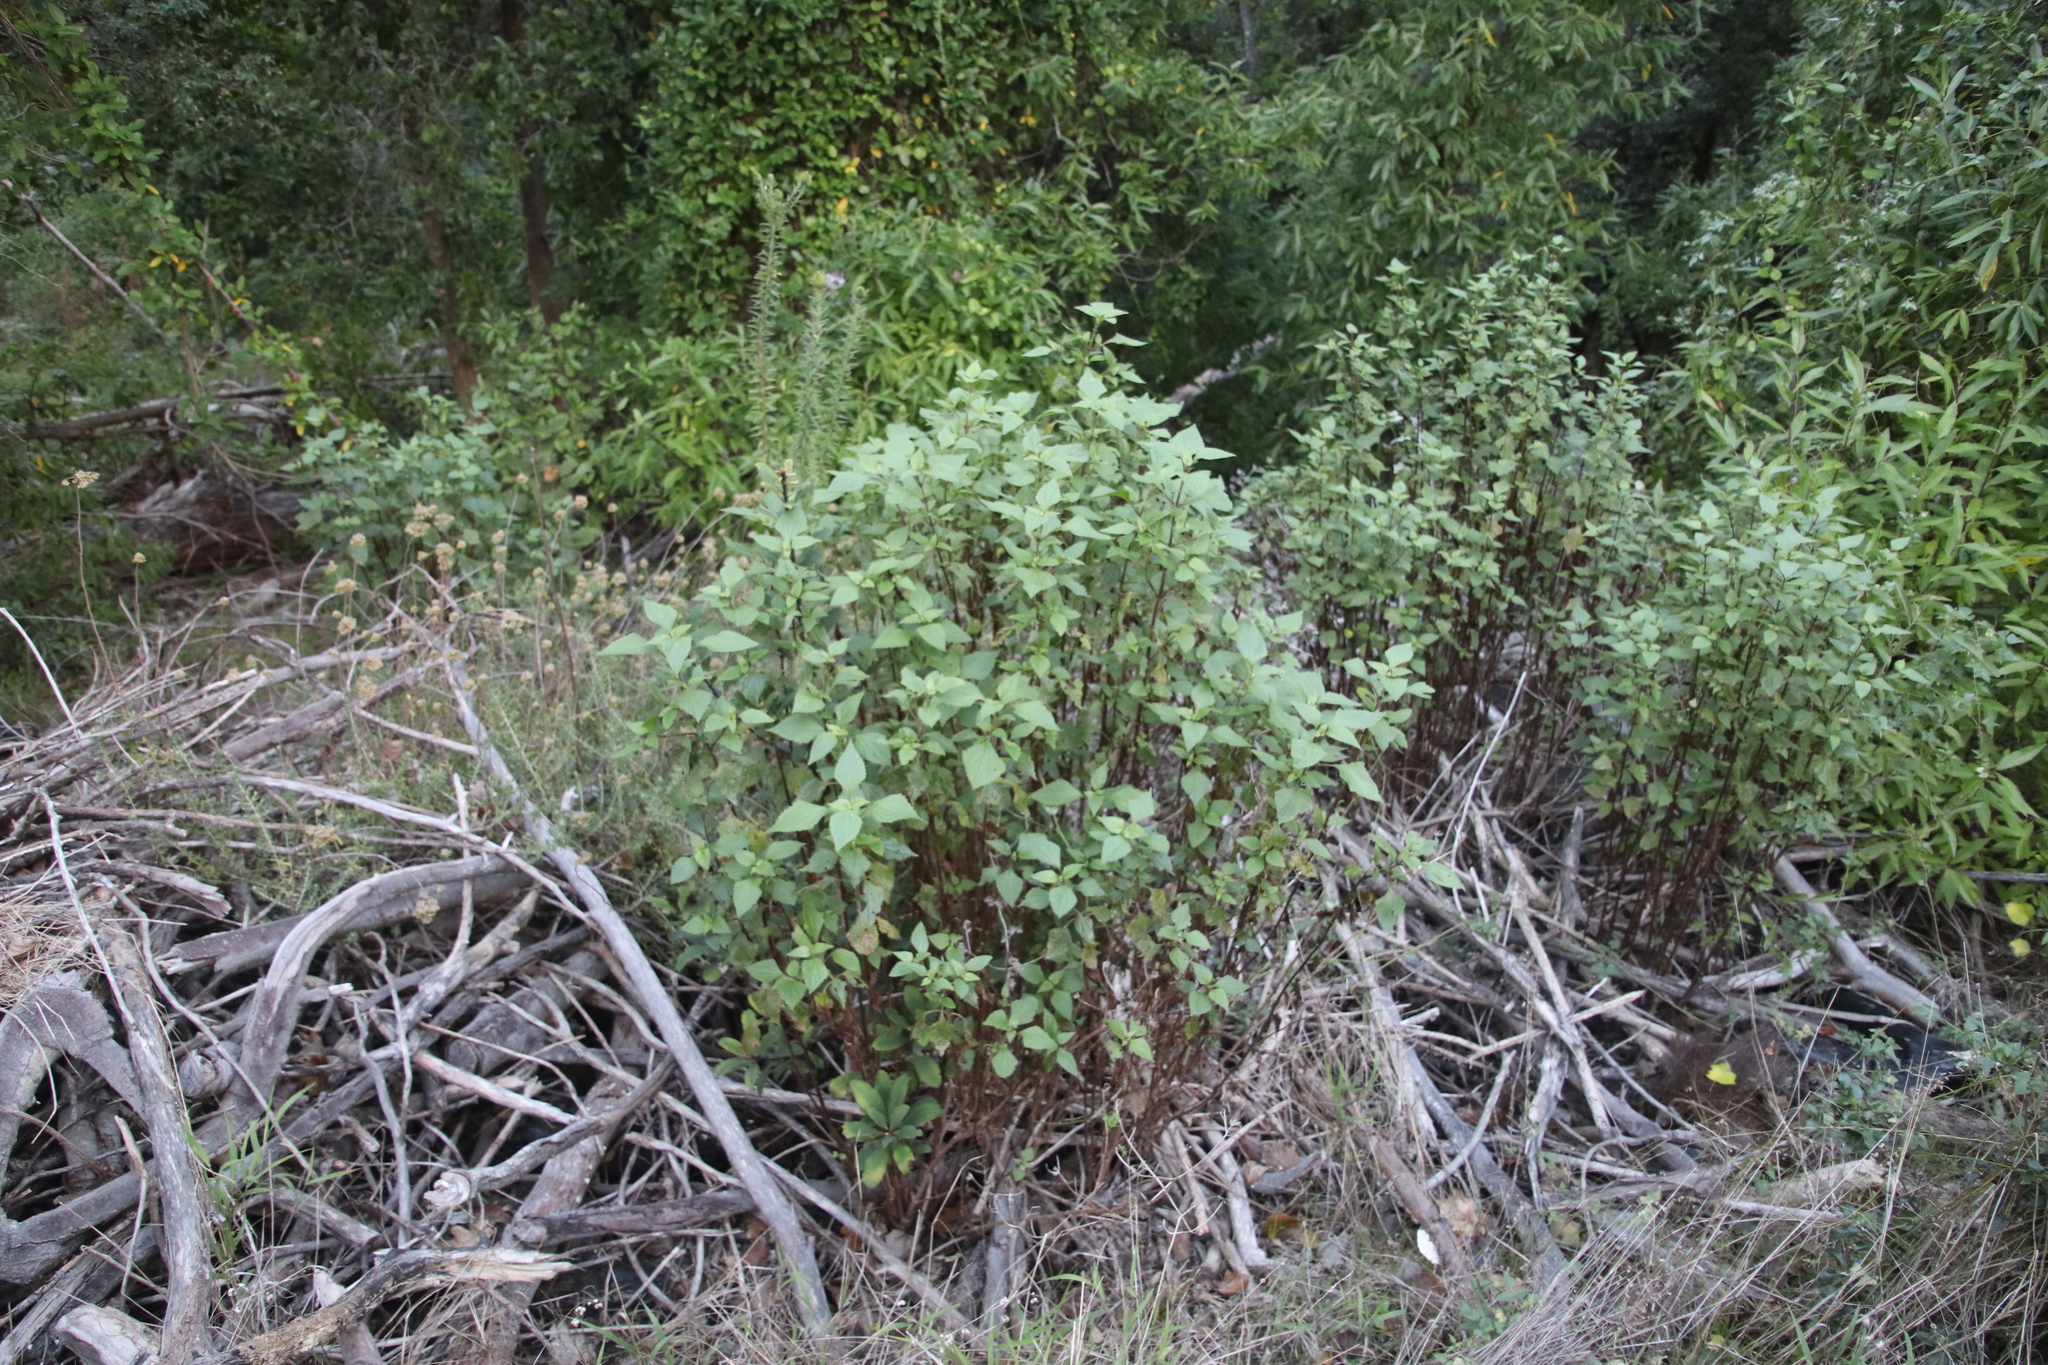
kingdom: Plantae
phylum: Tracheophyta
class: Magnoliopsida
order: Asterales
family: Asteraceae
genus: Ageratina
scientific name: Ageratina adenophora
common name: Sticky snakeroot
